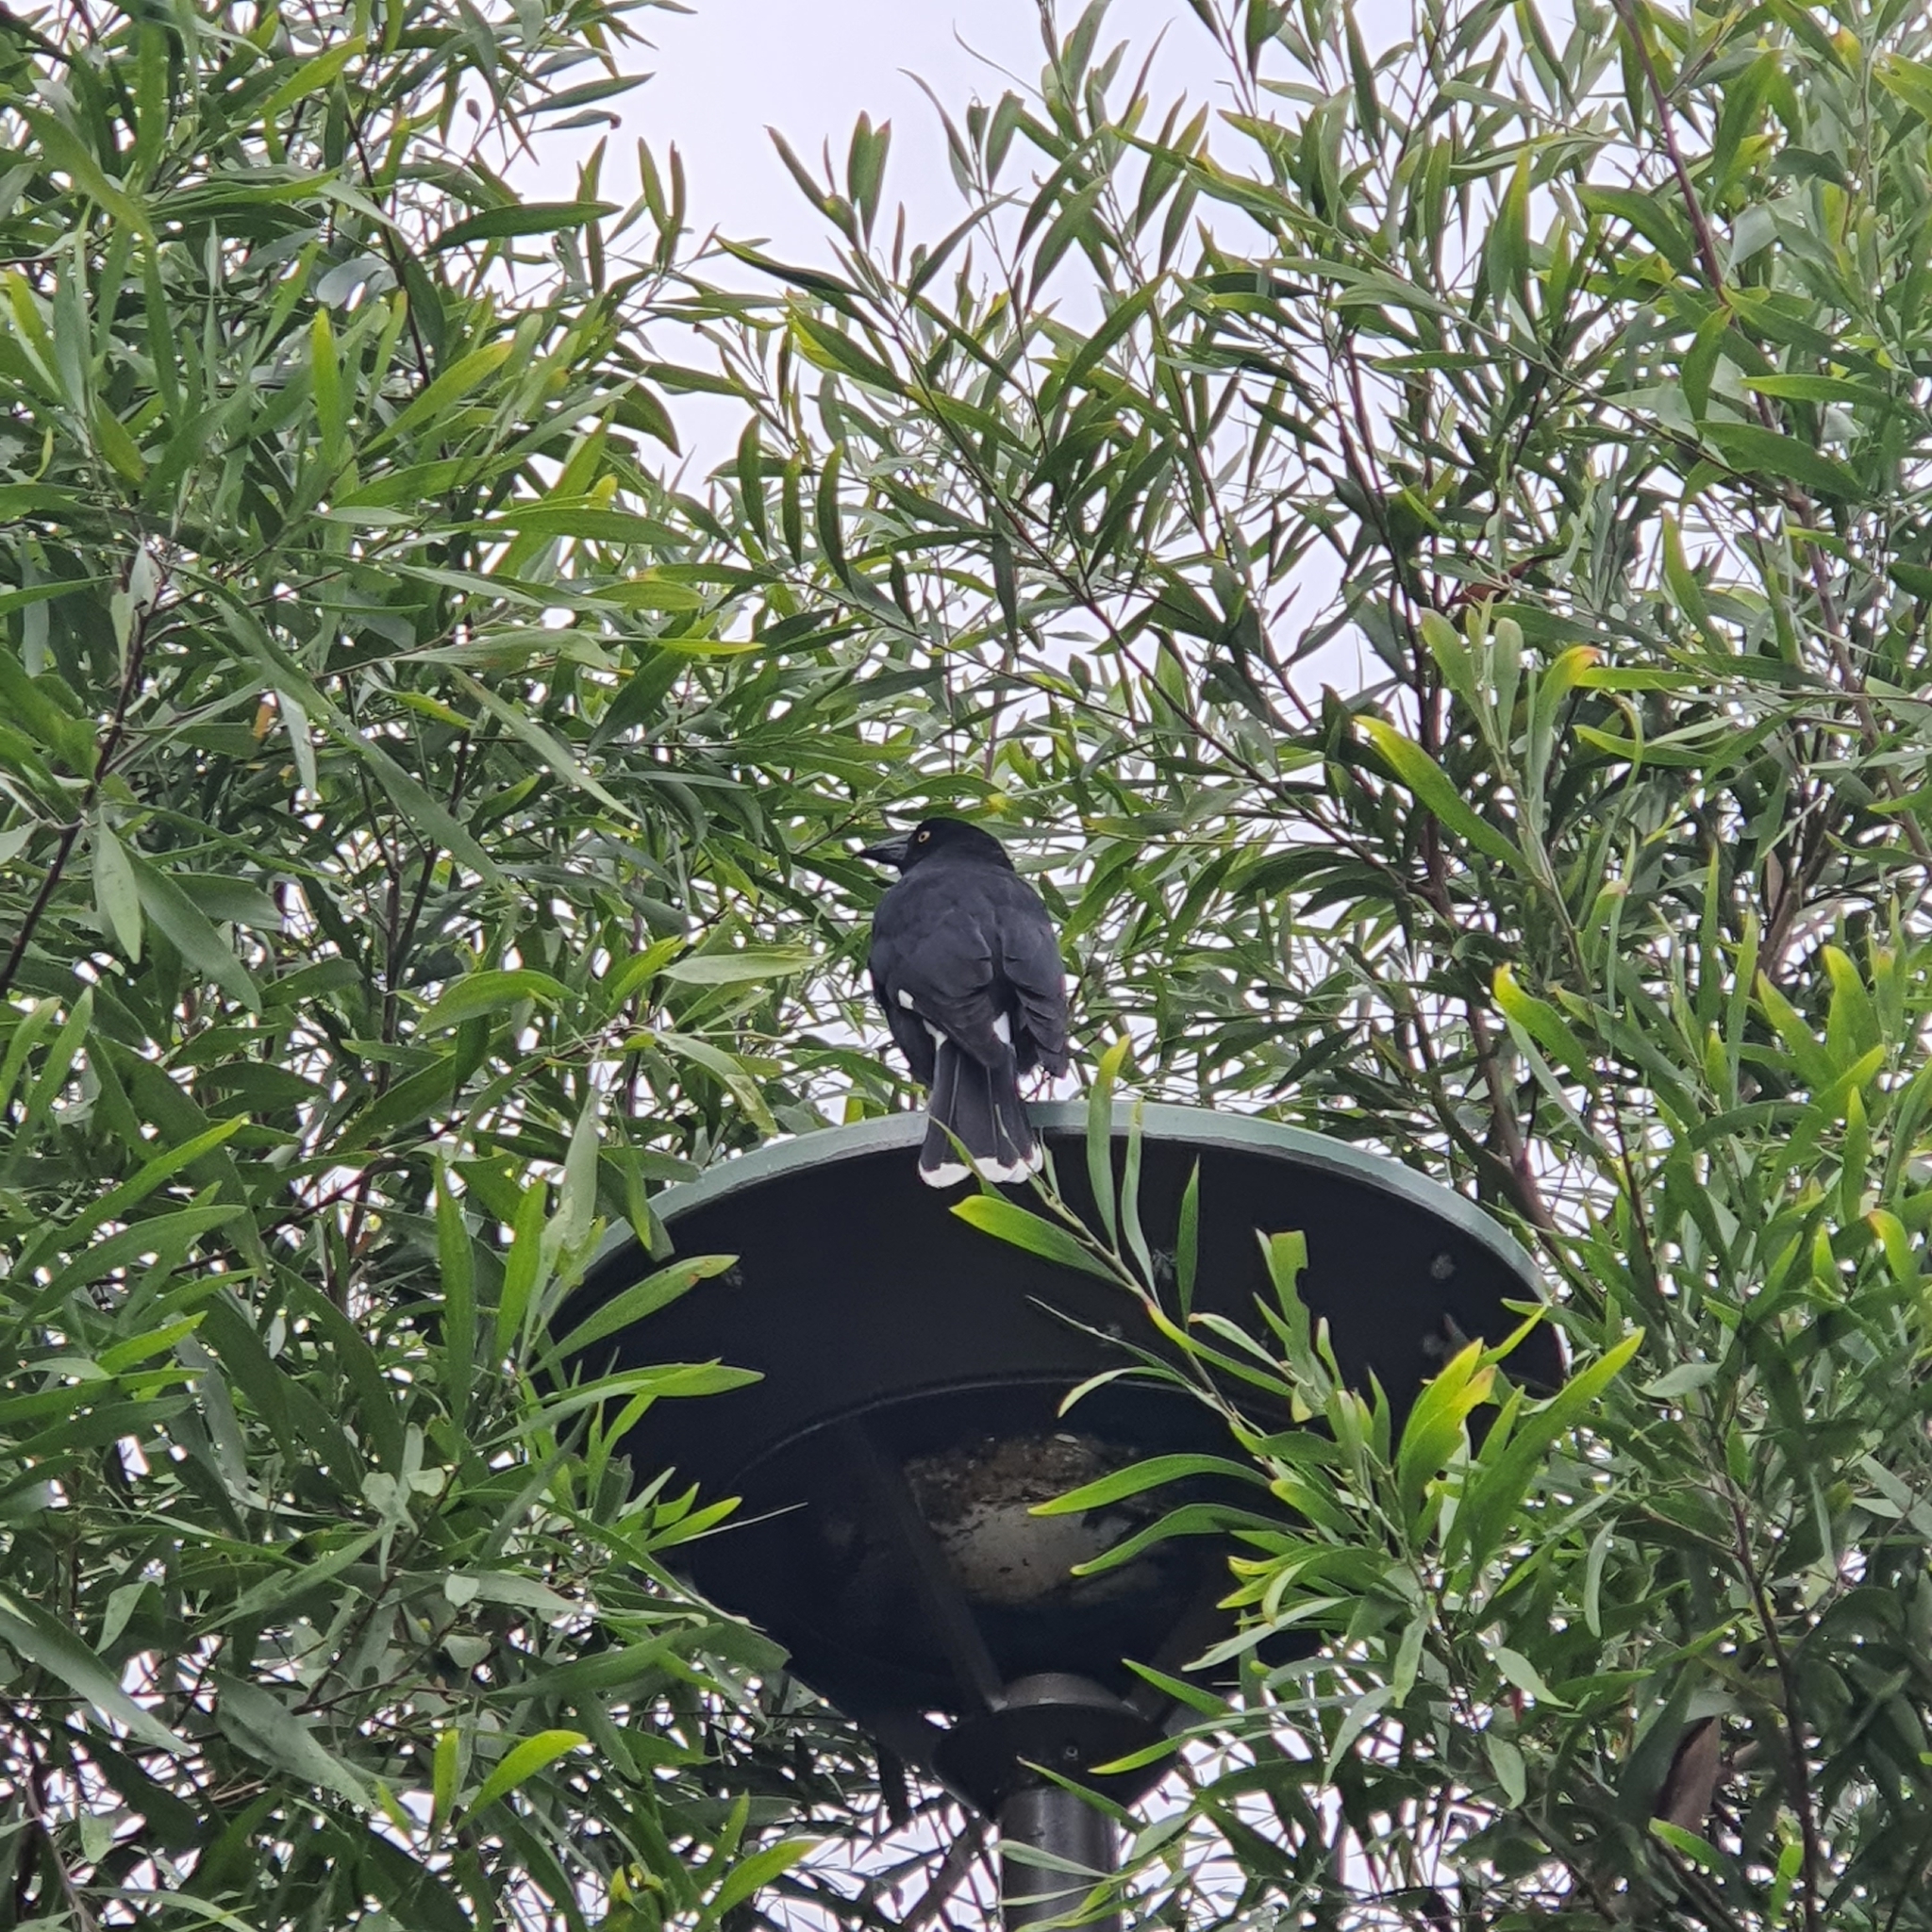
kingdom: Animalia
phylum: Chordata
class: Aves
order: Passeriformes
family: Cracticidae
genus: Strepera
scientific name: Strepera graculina
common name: Pied currawong
